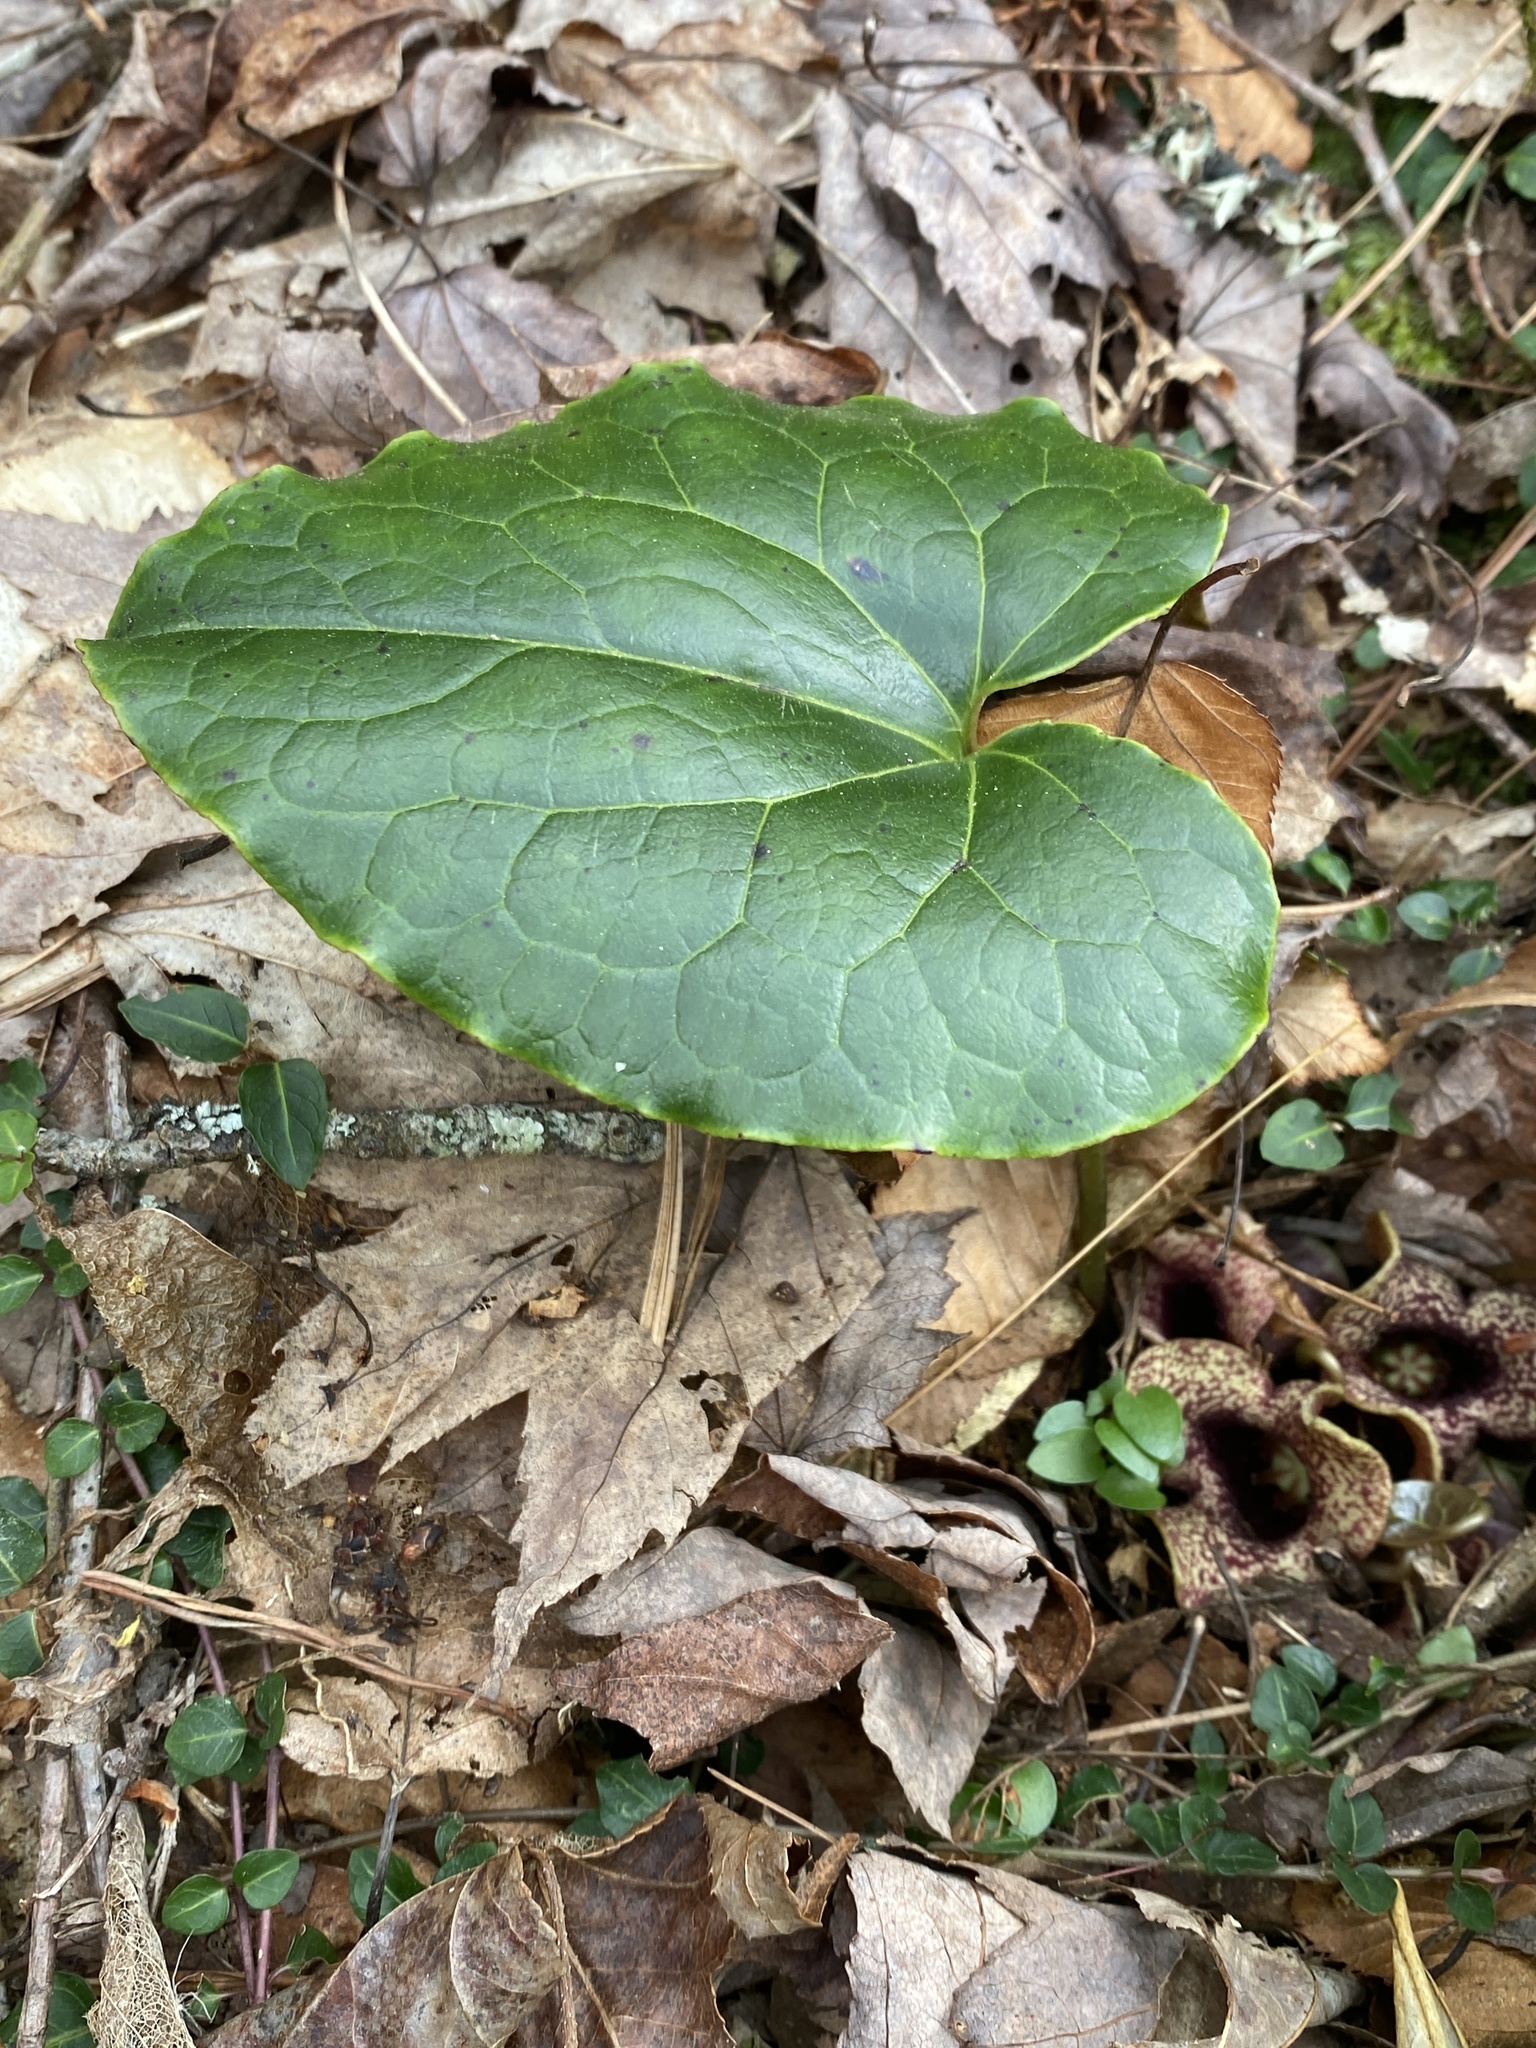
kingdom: Plantae
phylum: Tracheophyta
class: Magnoliopsida
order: Piperales
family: Aristolochiaceae
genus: Hexastylis
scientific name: Hexastylis heterophylla
